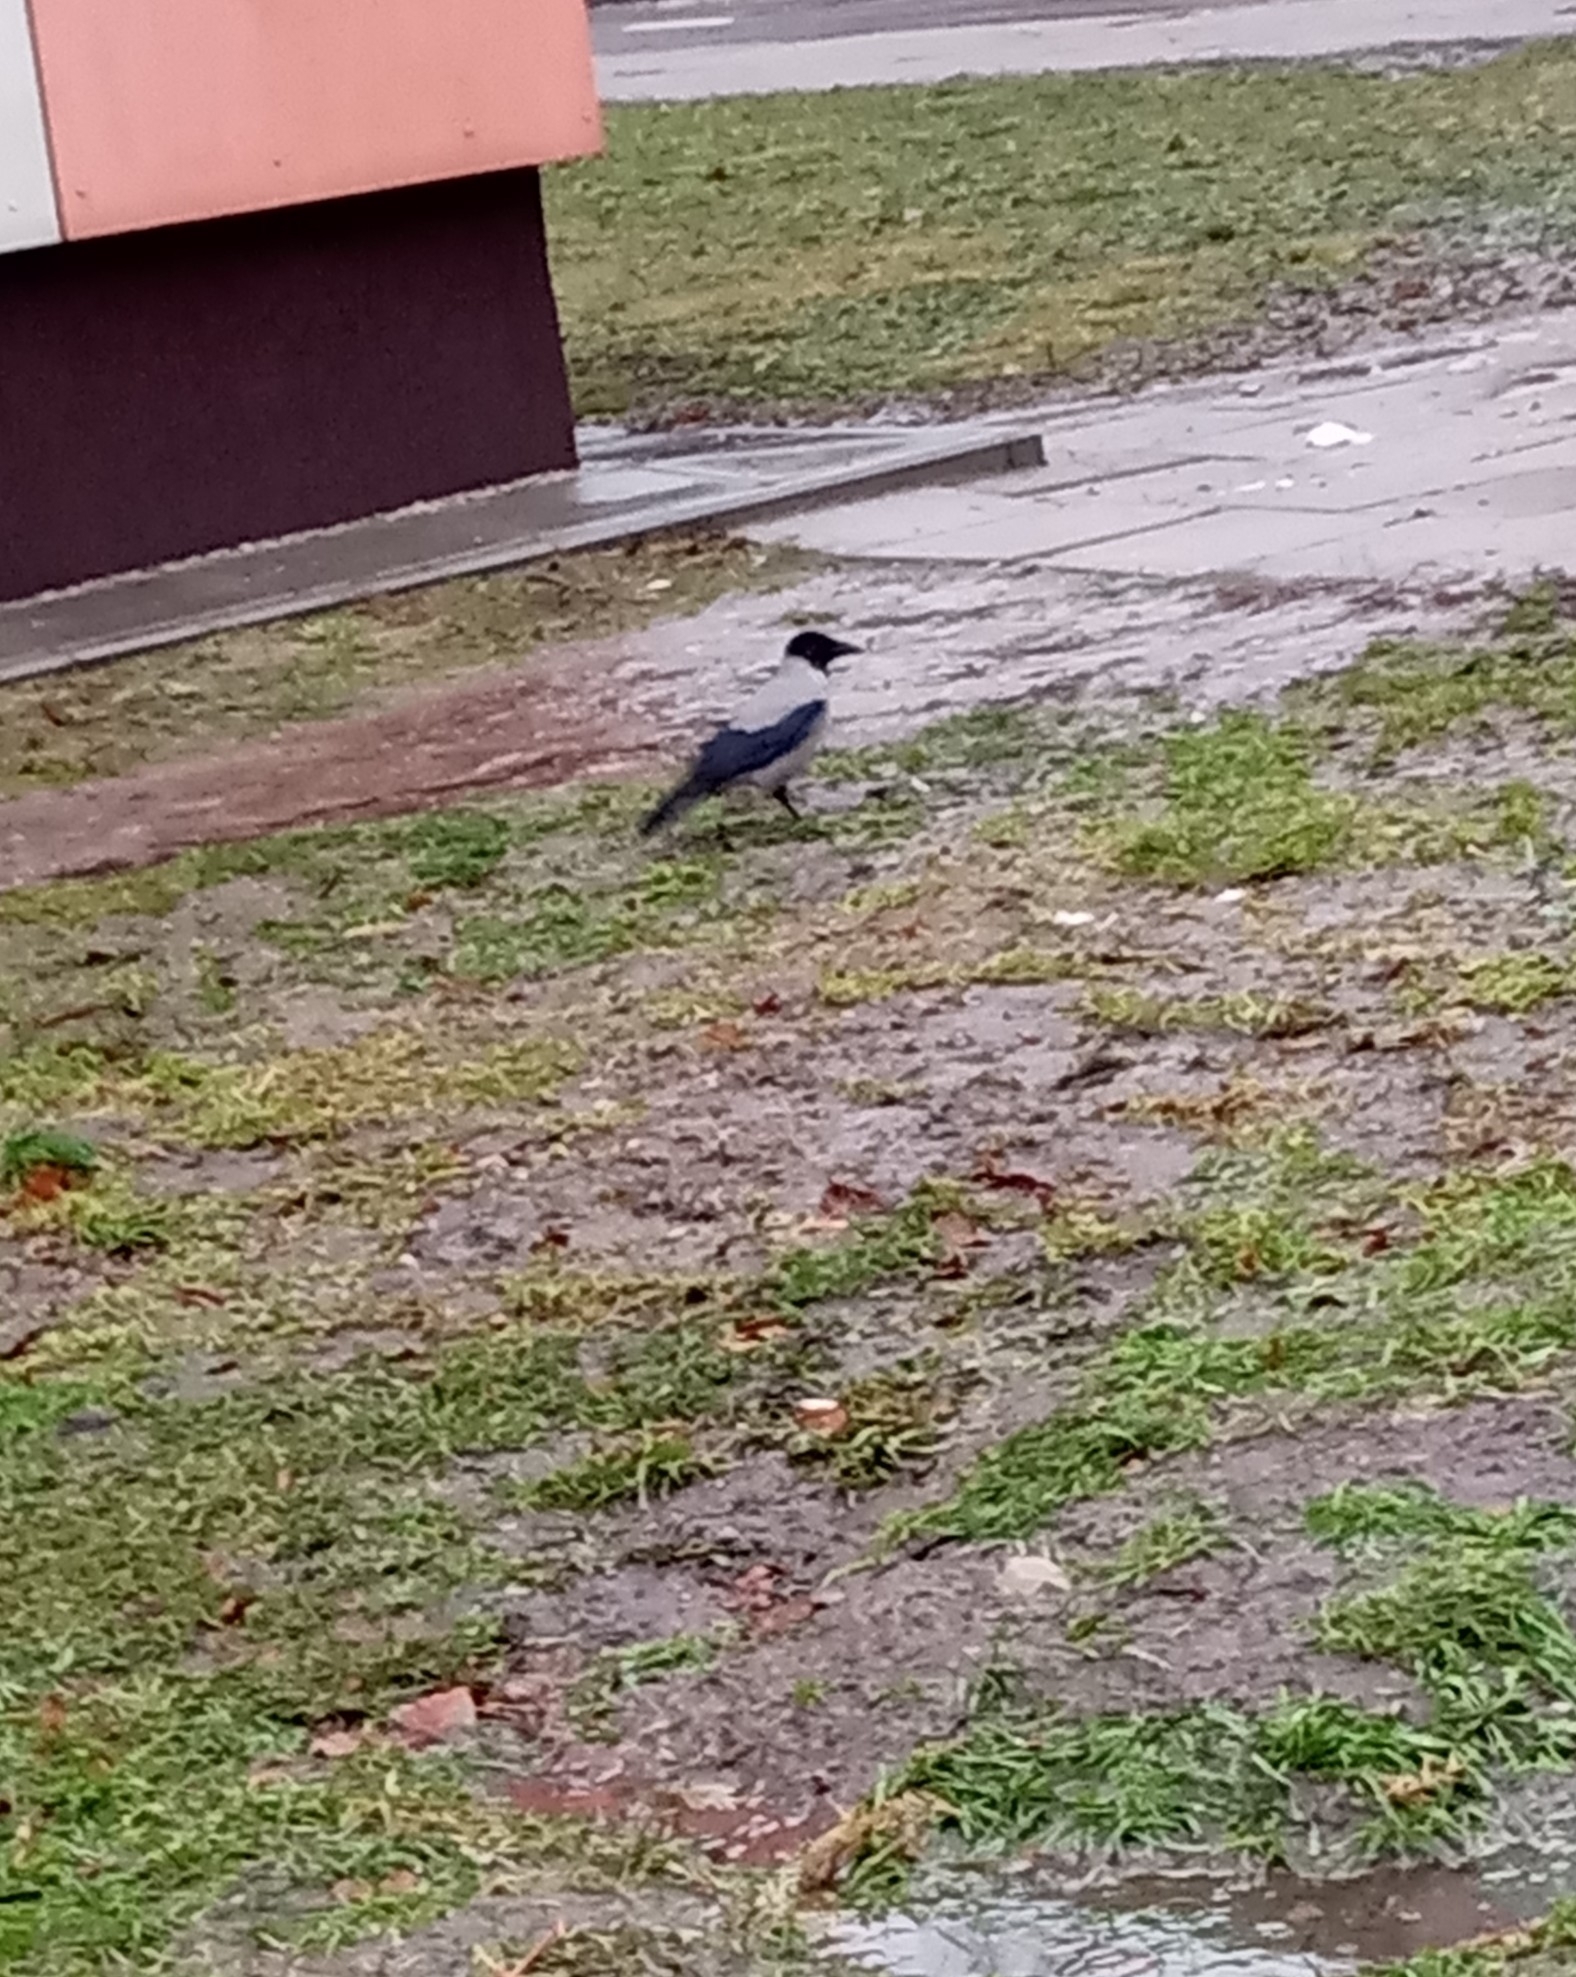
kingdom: Animalia
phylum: Chordata
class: Aves
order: Passeriformes
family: Corvidae
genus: Corvus
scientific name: Corvus cornix
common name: Hooded crow
